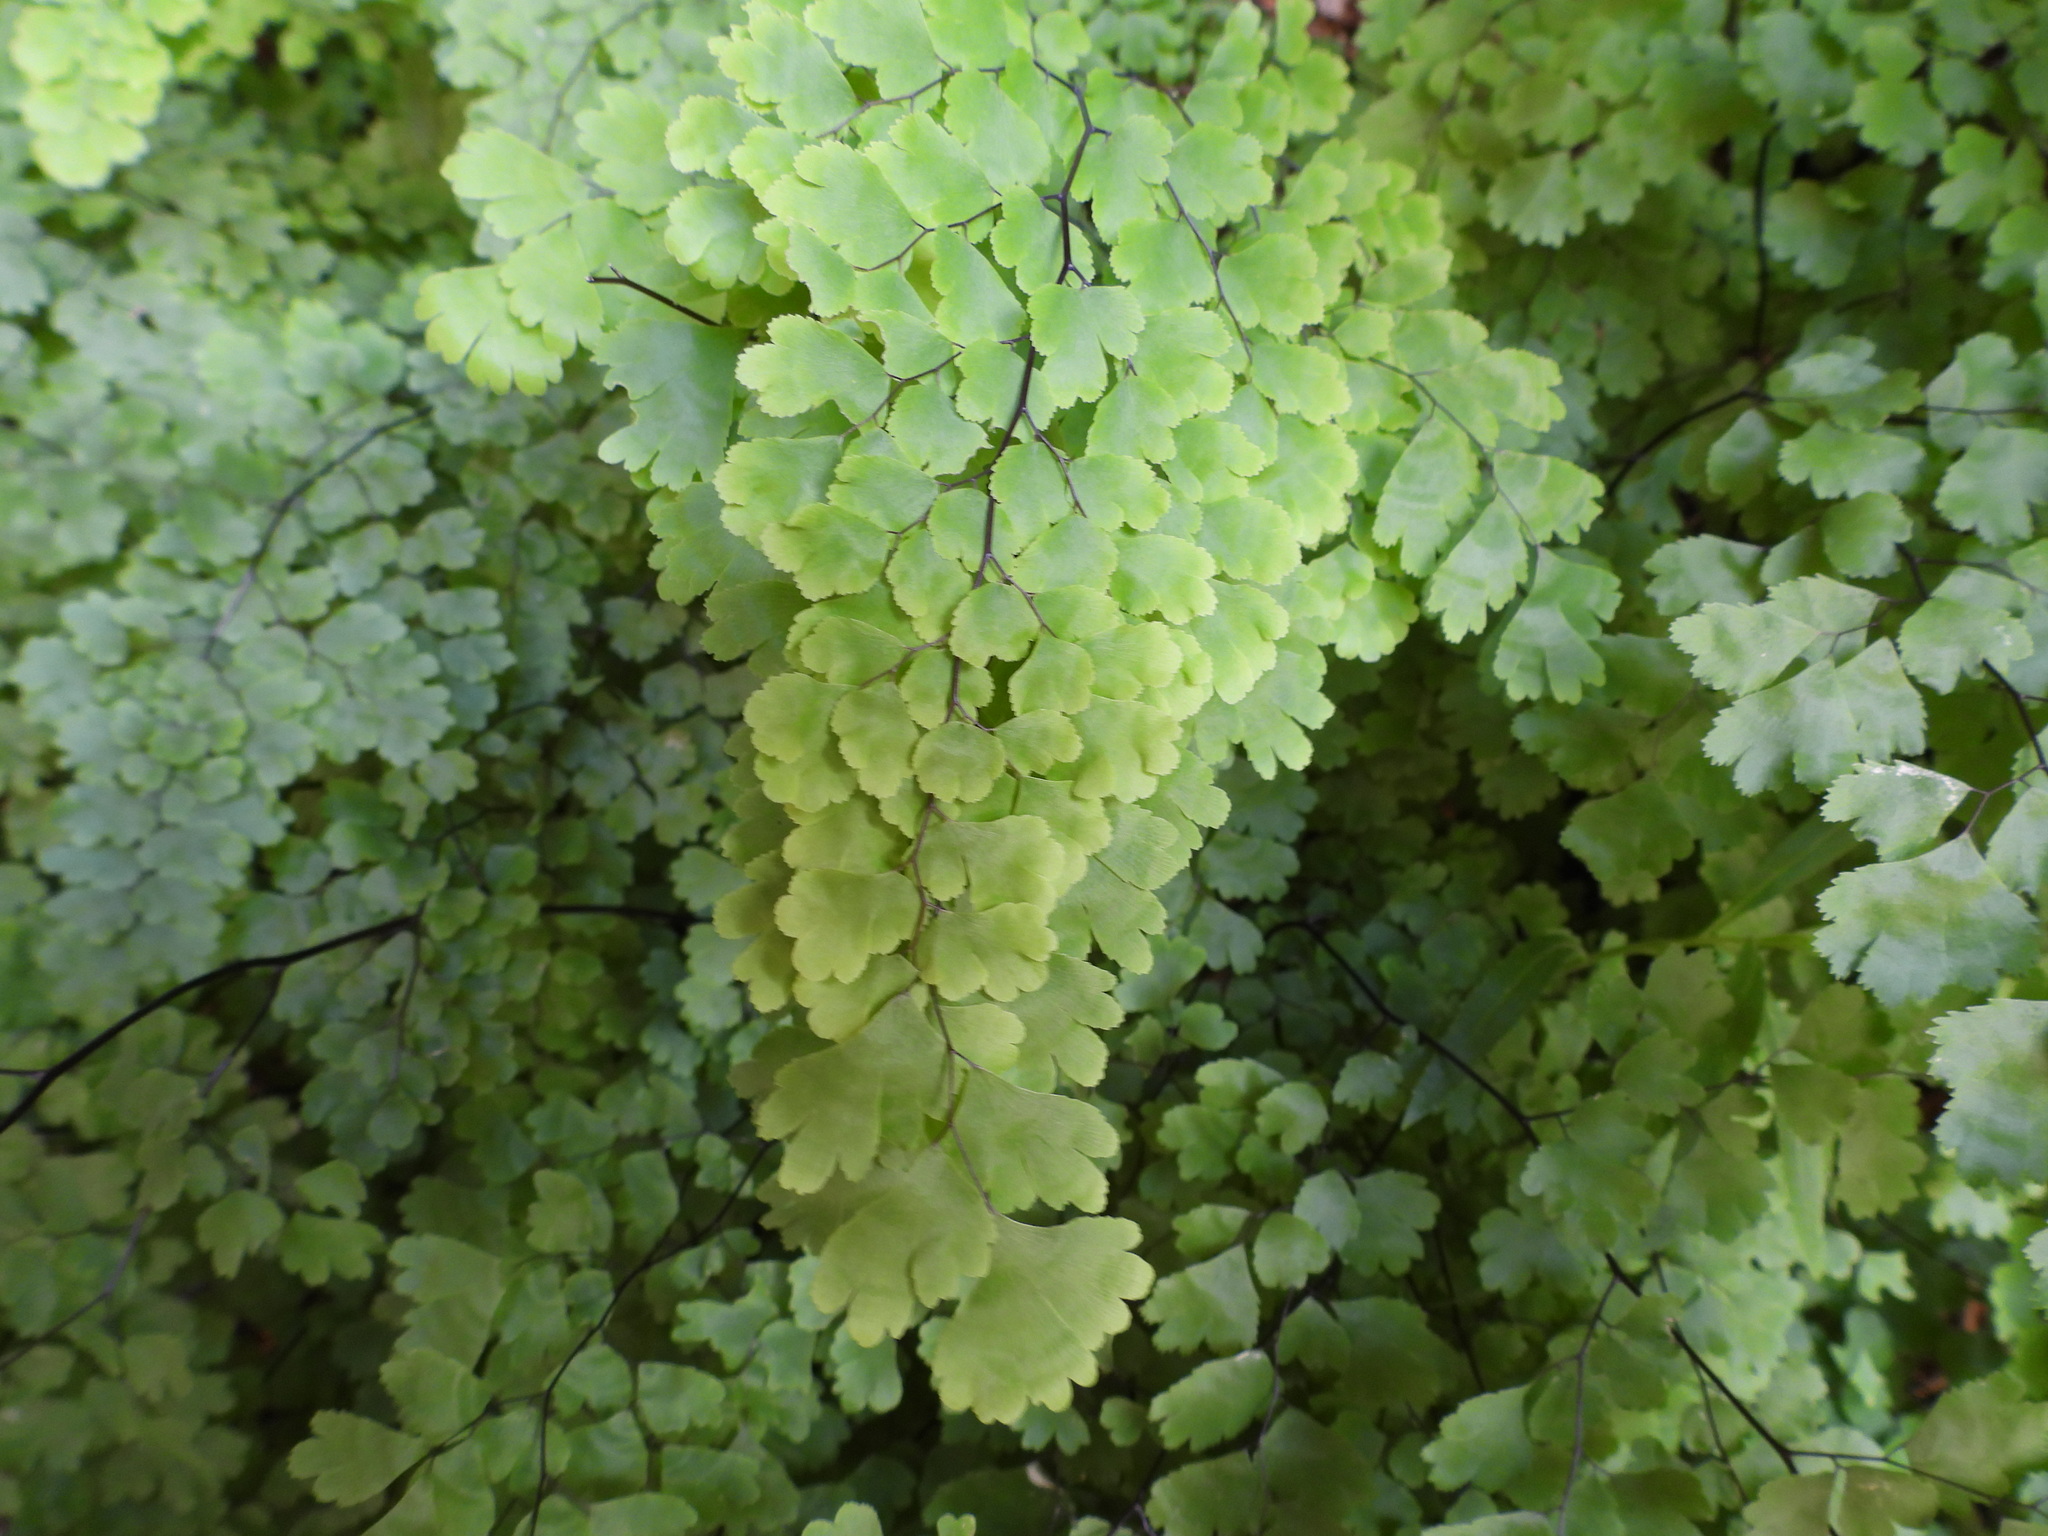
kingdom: Plantae
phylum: Tracheophyta
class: Polypodiopsida
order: Polypodiales
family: Pteridaceae
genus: Adiantum
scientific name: Adiantum capillus-veneris
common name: Maidenhair fern
